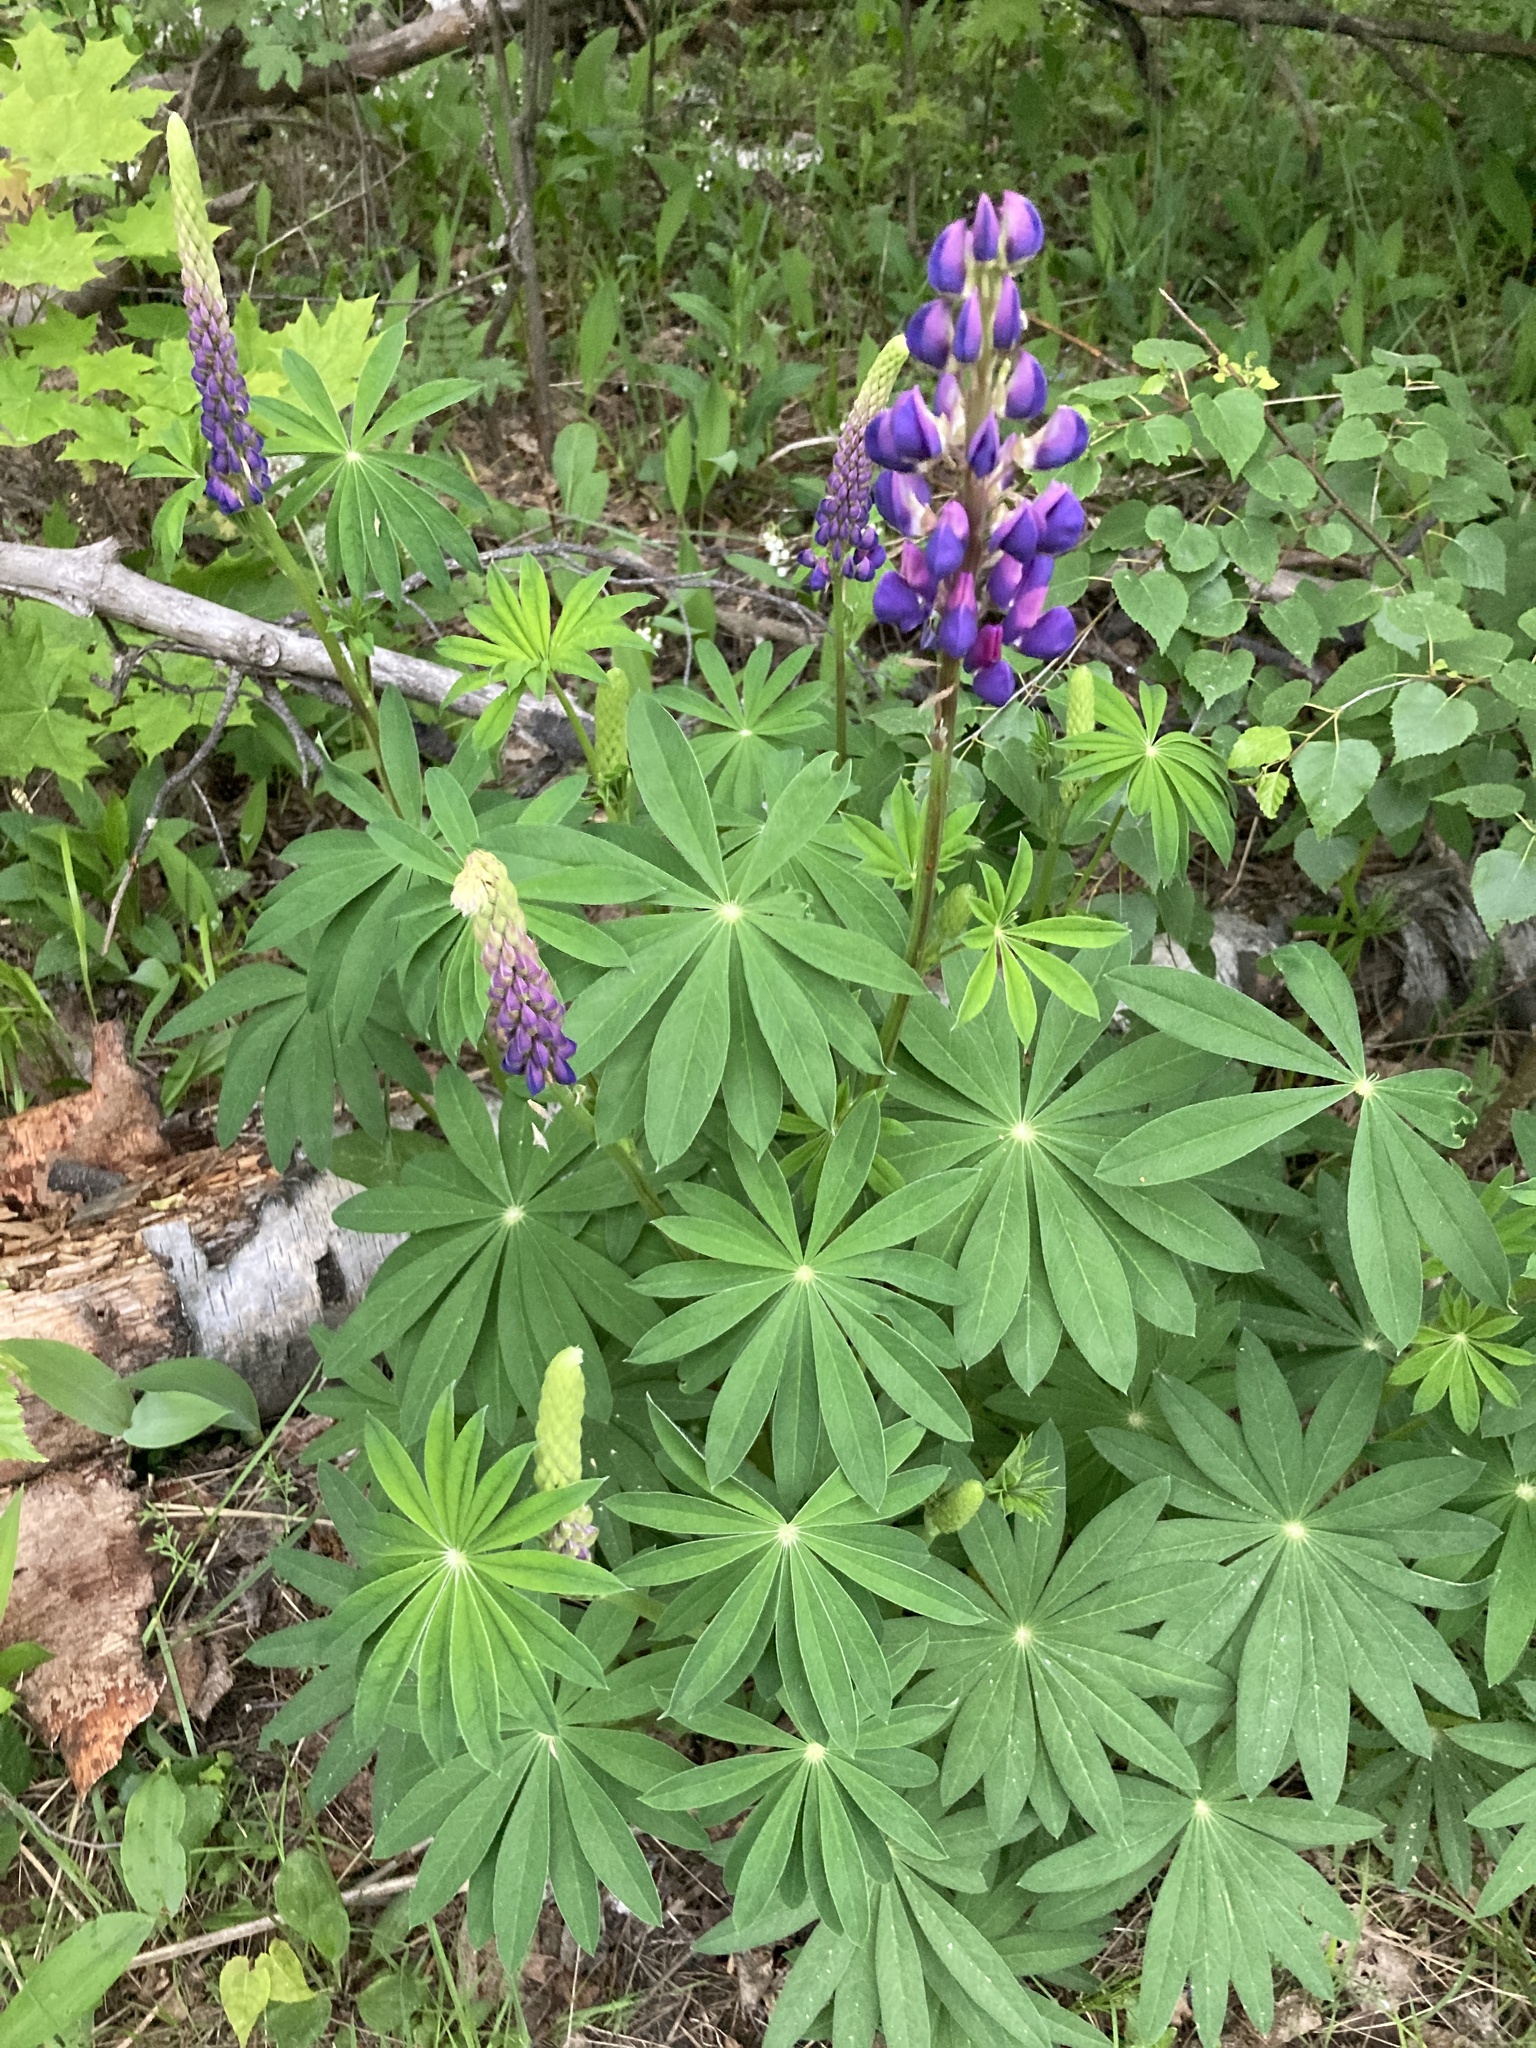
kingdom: Plantae
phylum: Tracheophyta
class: Magnoliopsida
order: Fabales
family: Fabaceae
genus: Lupinus
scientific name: Lupinus polyphyllus
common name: Garden lupin
